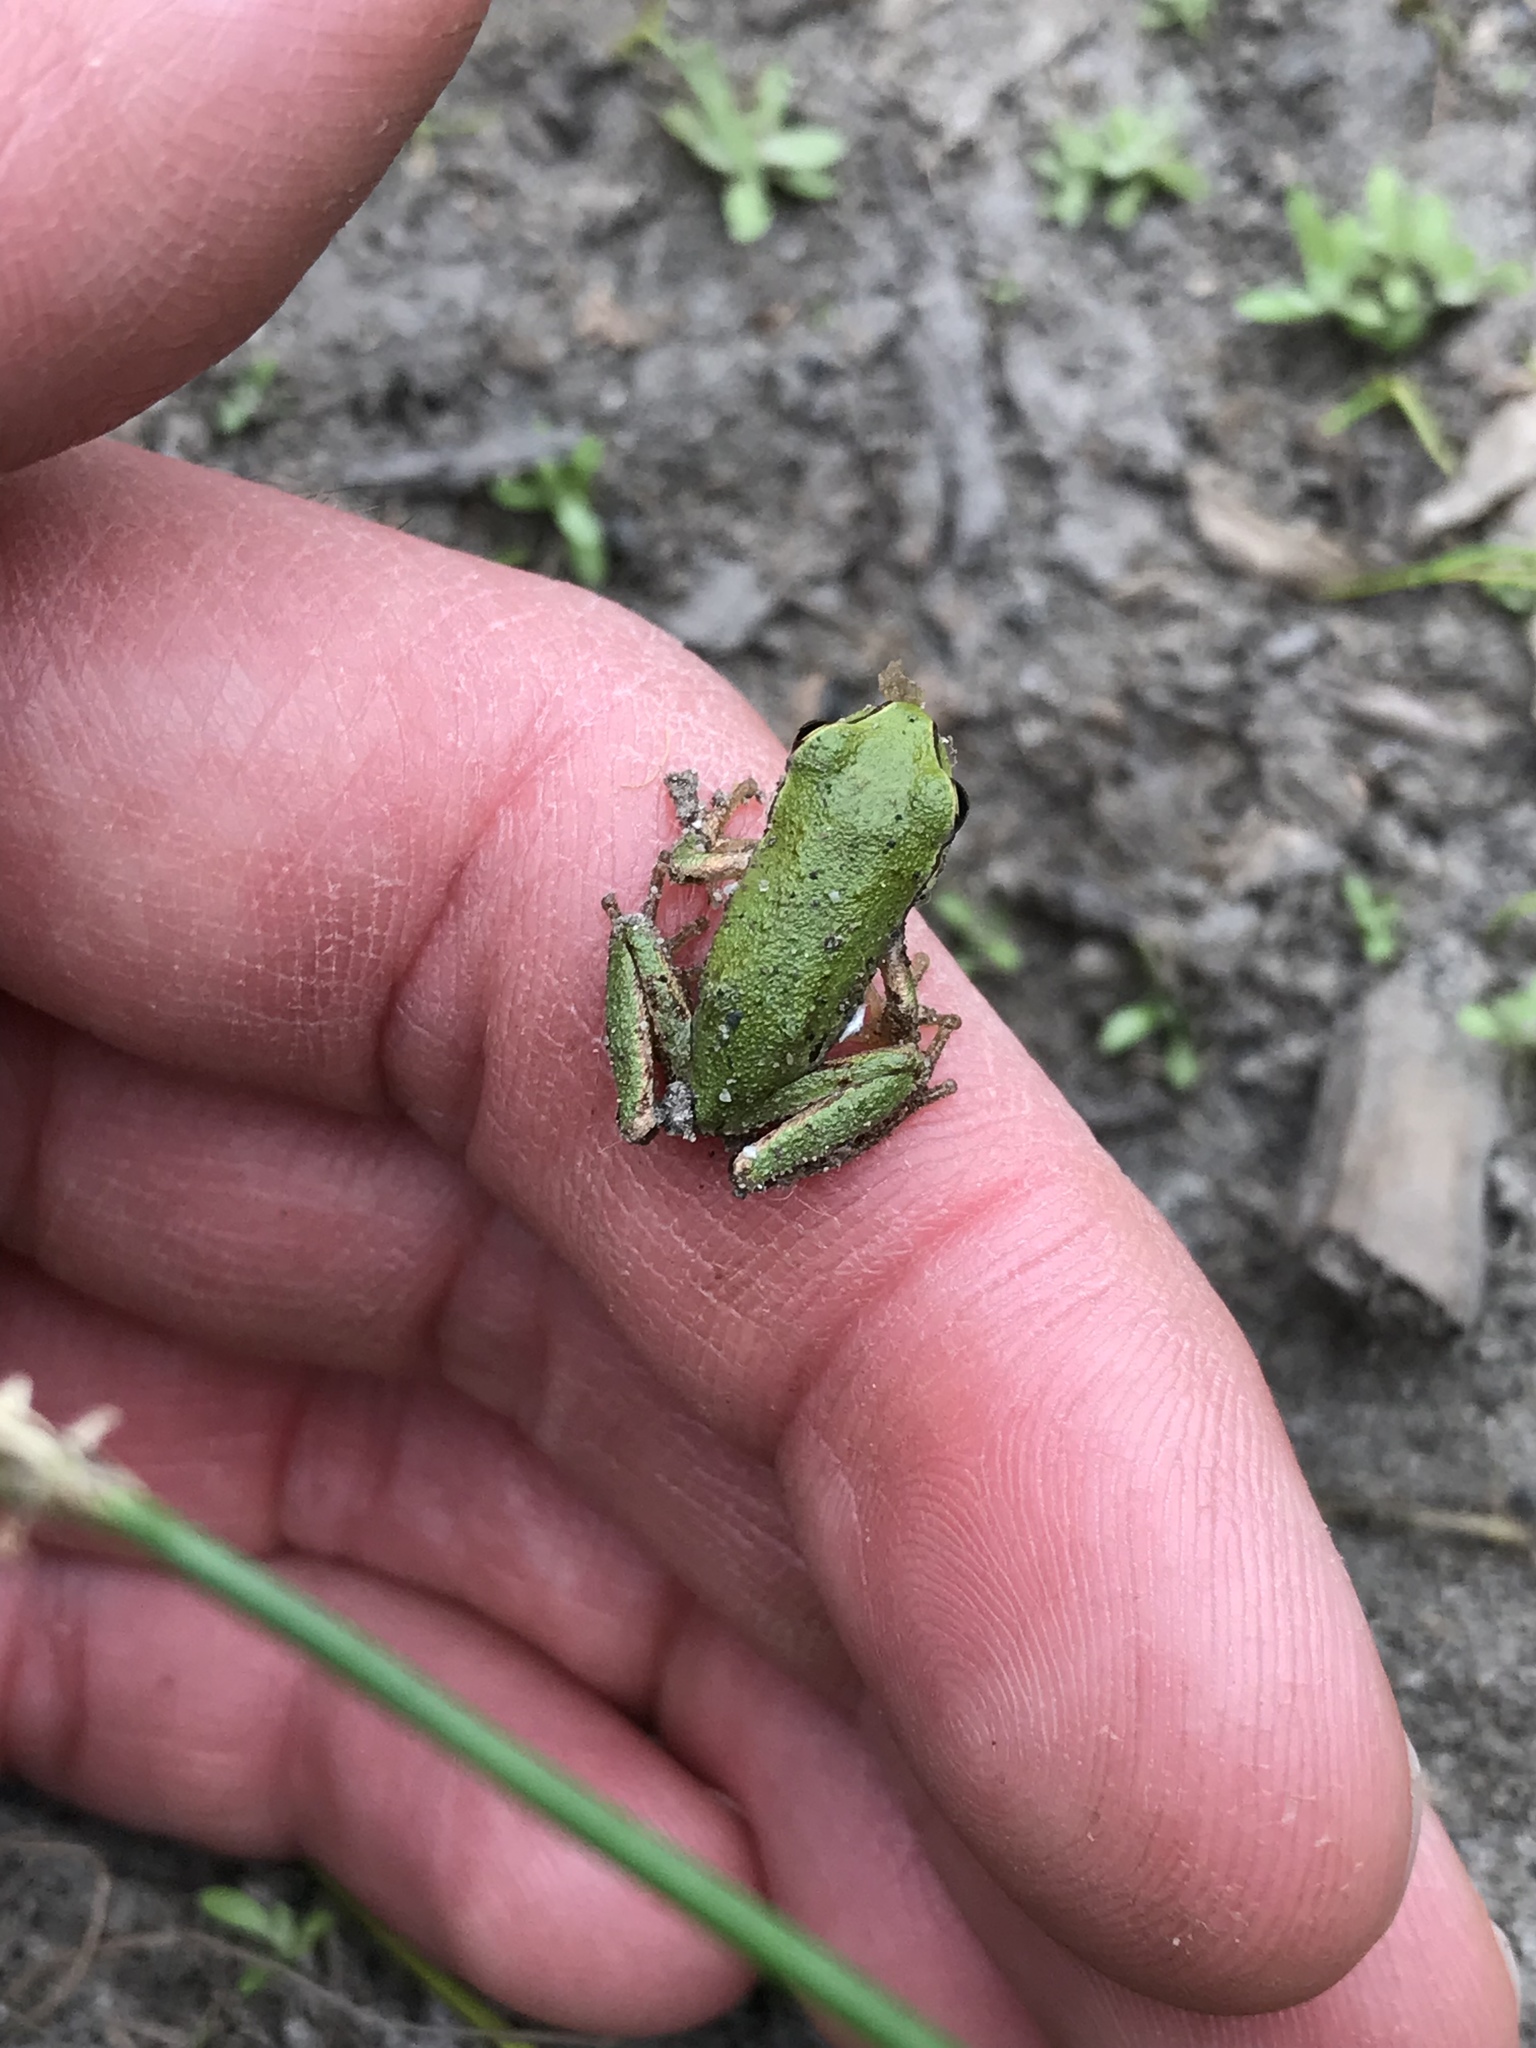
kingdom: Animalia
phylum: Chordata
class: Amphibia
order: Anura
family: Hylidae
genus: Pseudacris
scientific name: Pseudacris regilla
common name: Pacific chorus frog
